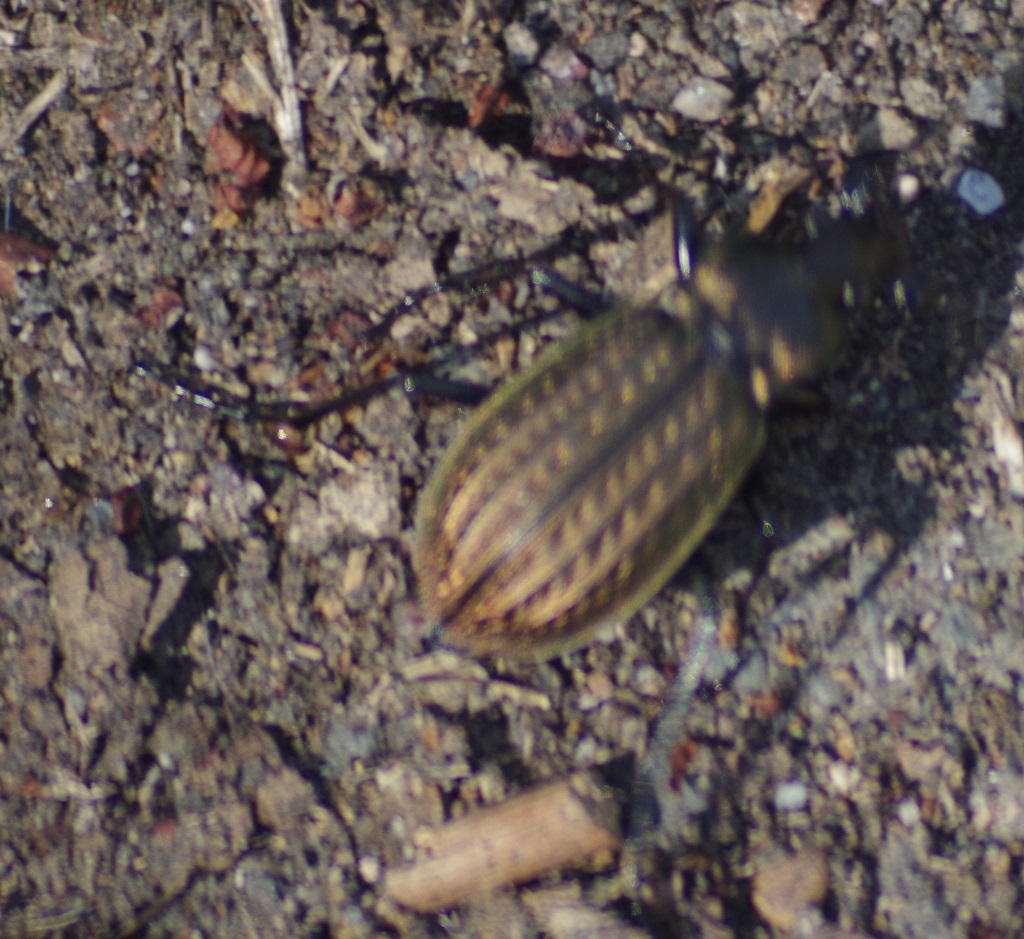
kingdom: Animalia
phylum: Arthropoda
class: Insecta
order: Coleoptera
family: Carabidae
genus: Carabus
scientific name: Carabus granulatus
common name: Granulate ground beetle
